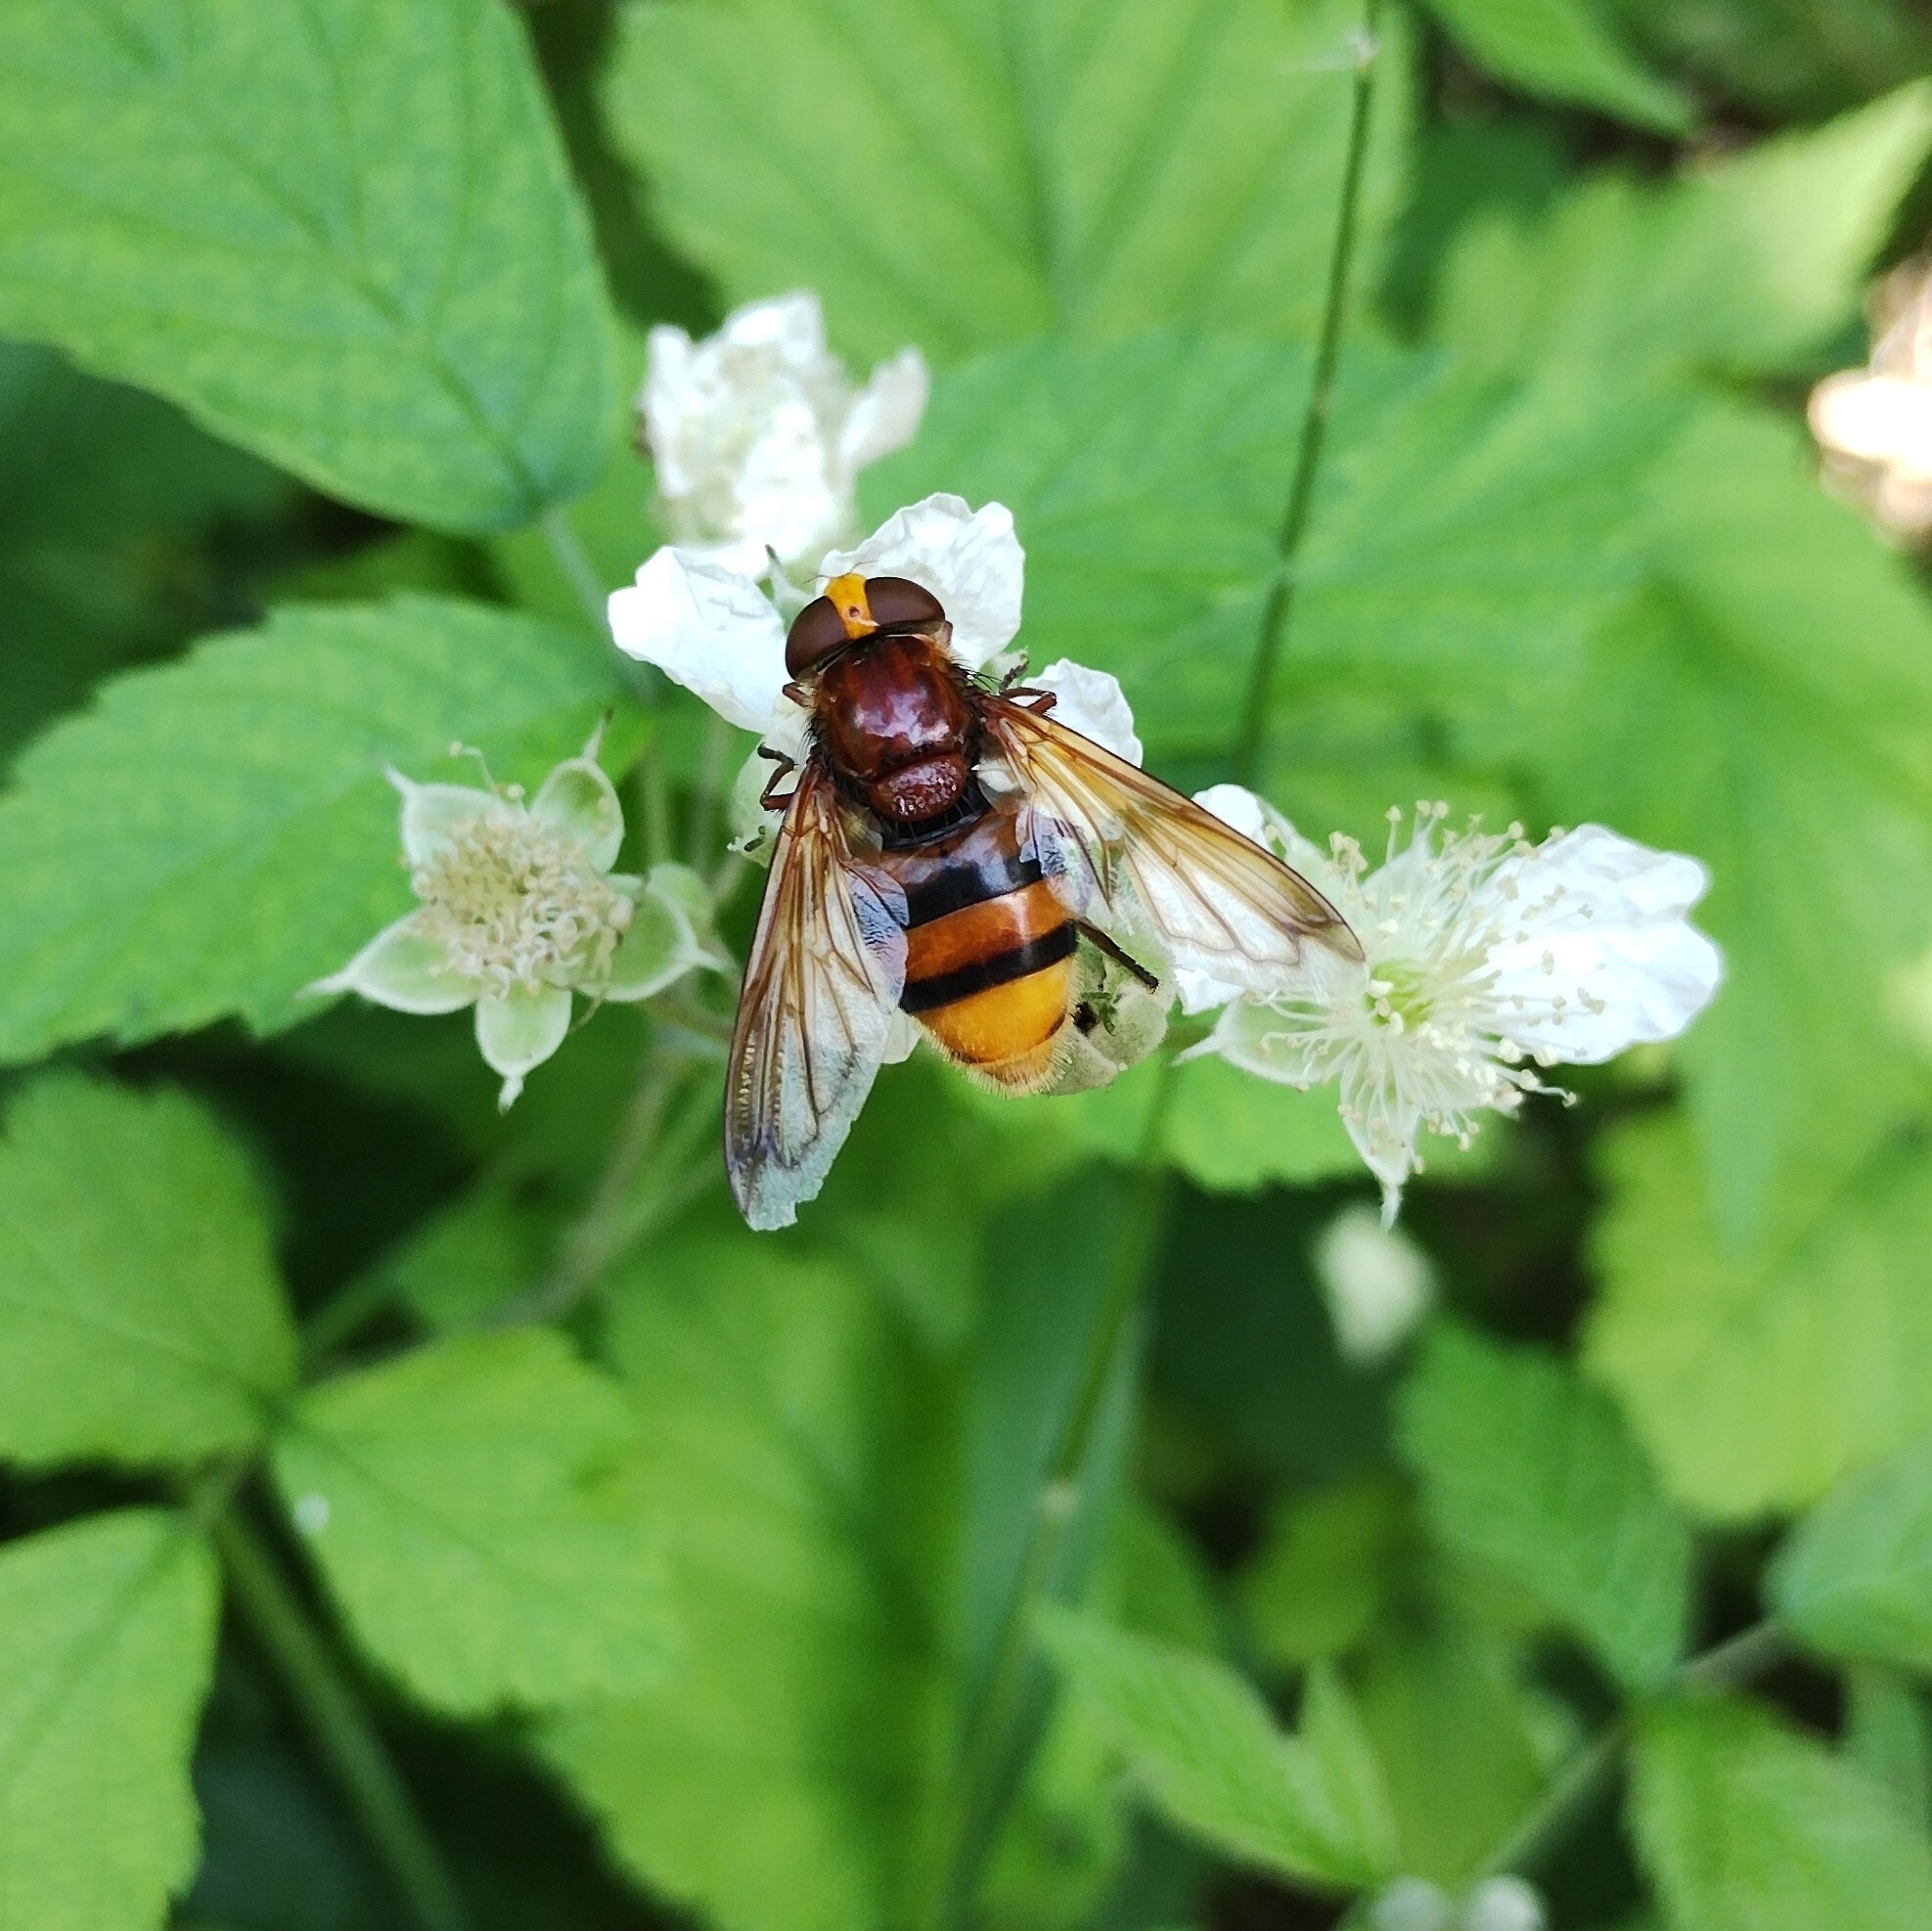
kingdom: Animalia
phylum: Arthropoda
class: Insecta
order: Diptera
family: Syrphidae
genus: Volucella
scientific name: Volucella zonaria
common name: Hornet hoverfly
